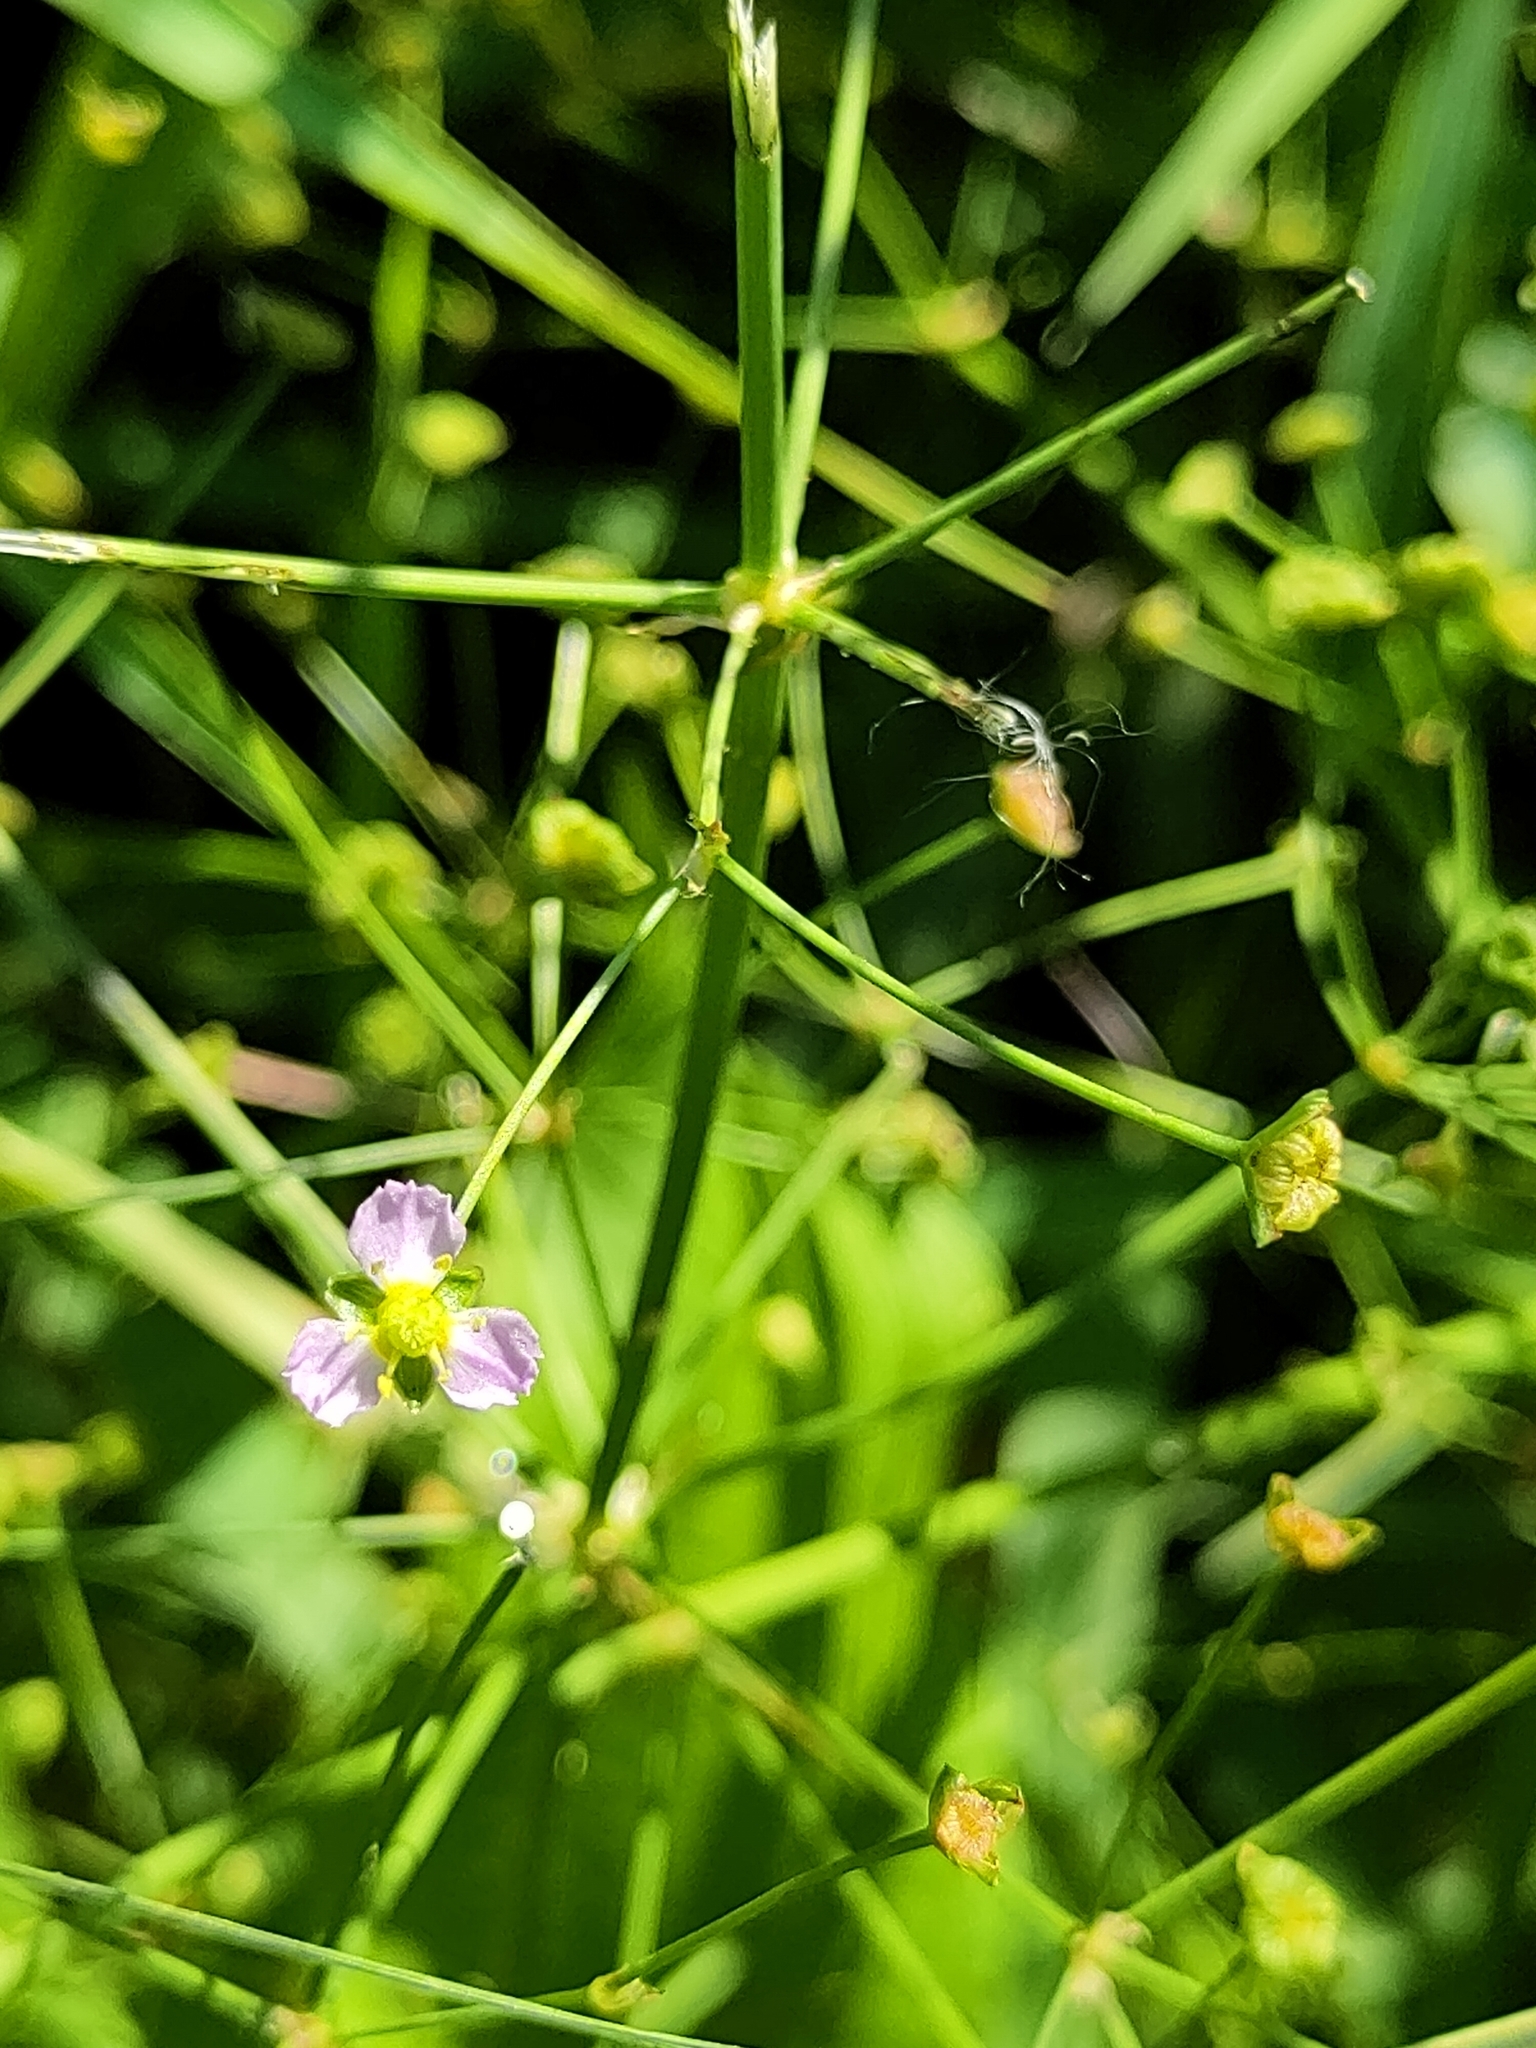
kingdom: Plantae
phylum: Tracheophyta
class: Liliopsida
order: Alismatales
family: Alismataceae
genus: Alisma
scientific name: Alisma plantago-aquatica
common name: Water-plantain
